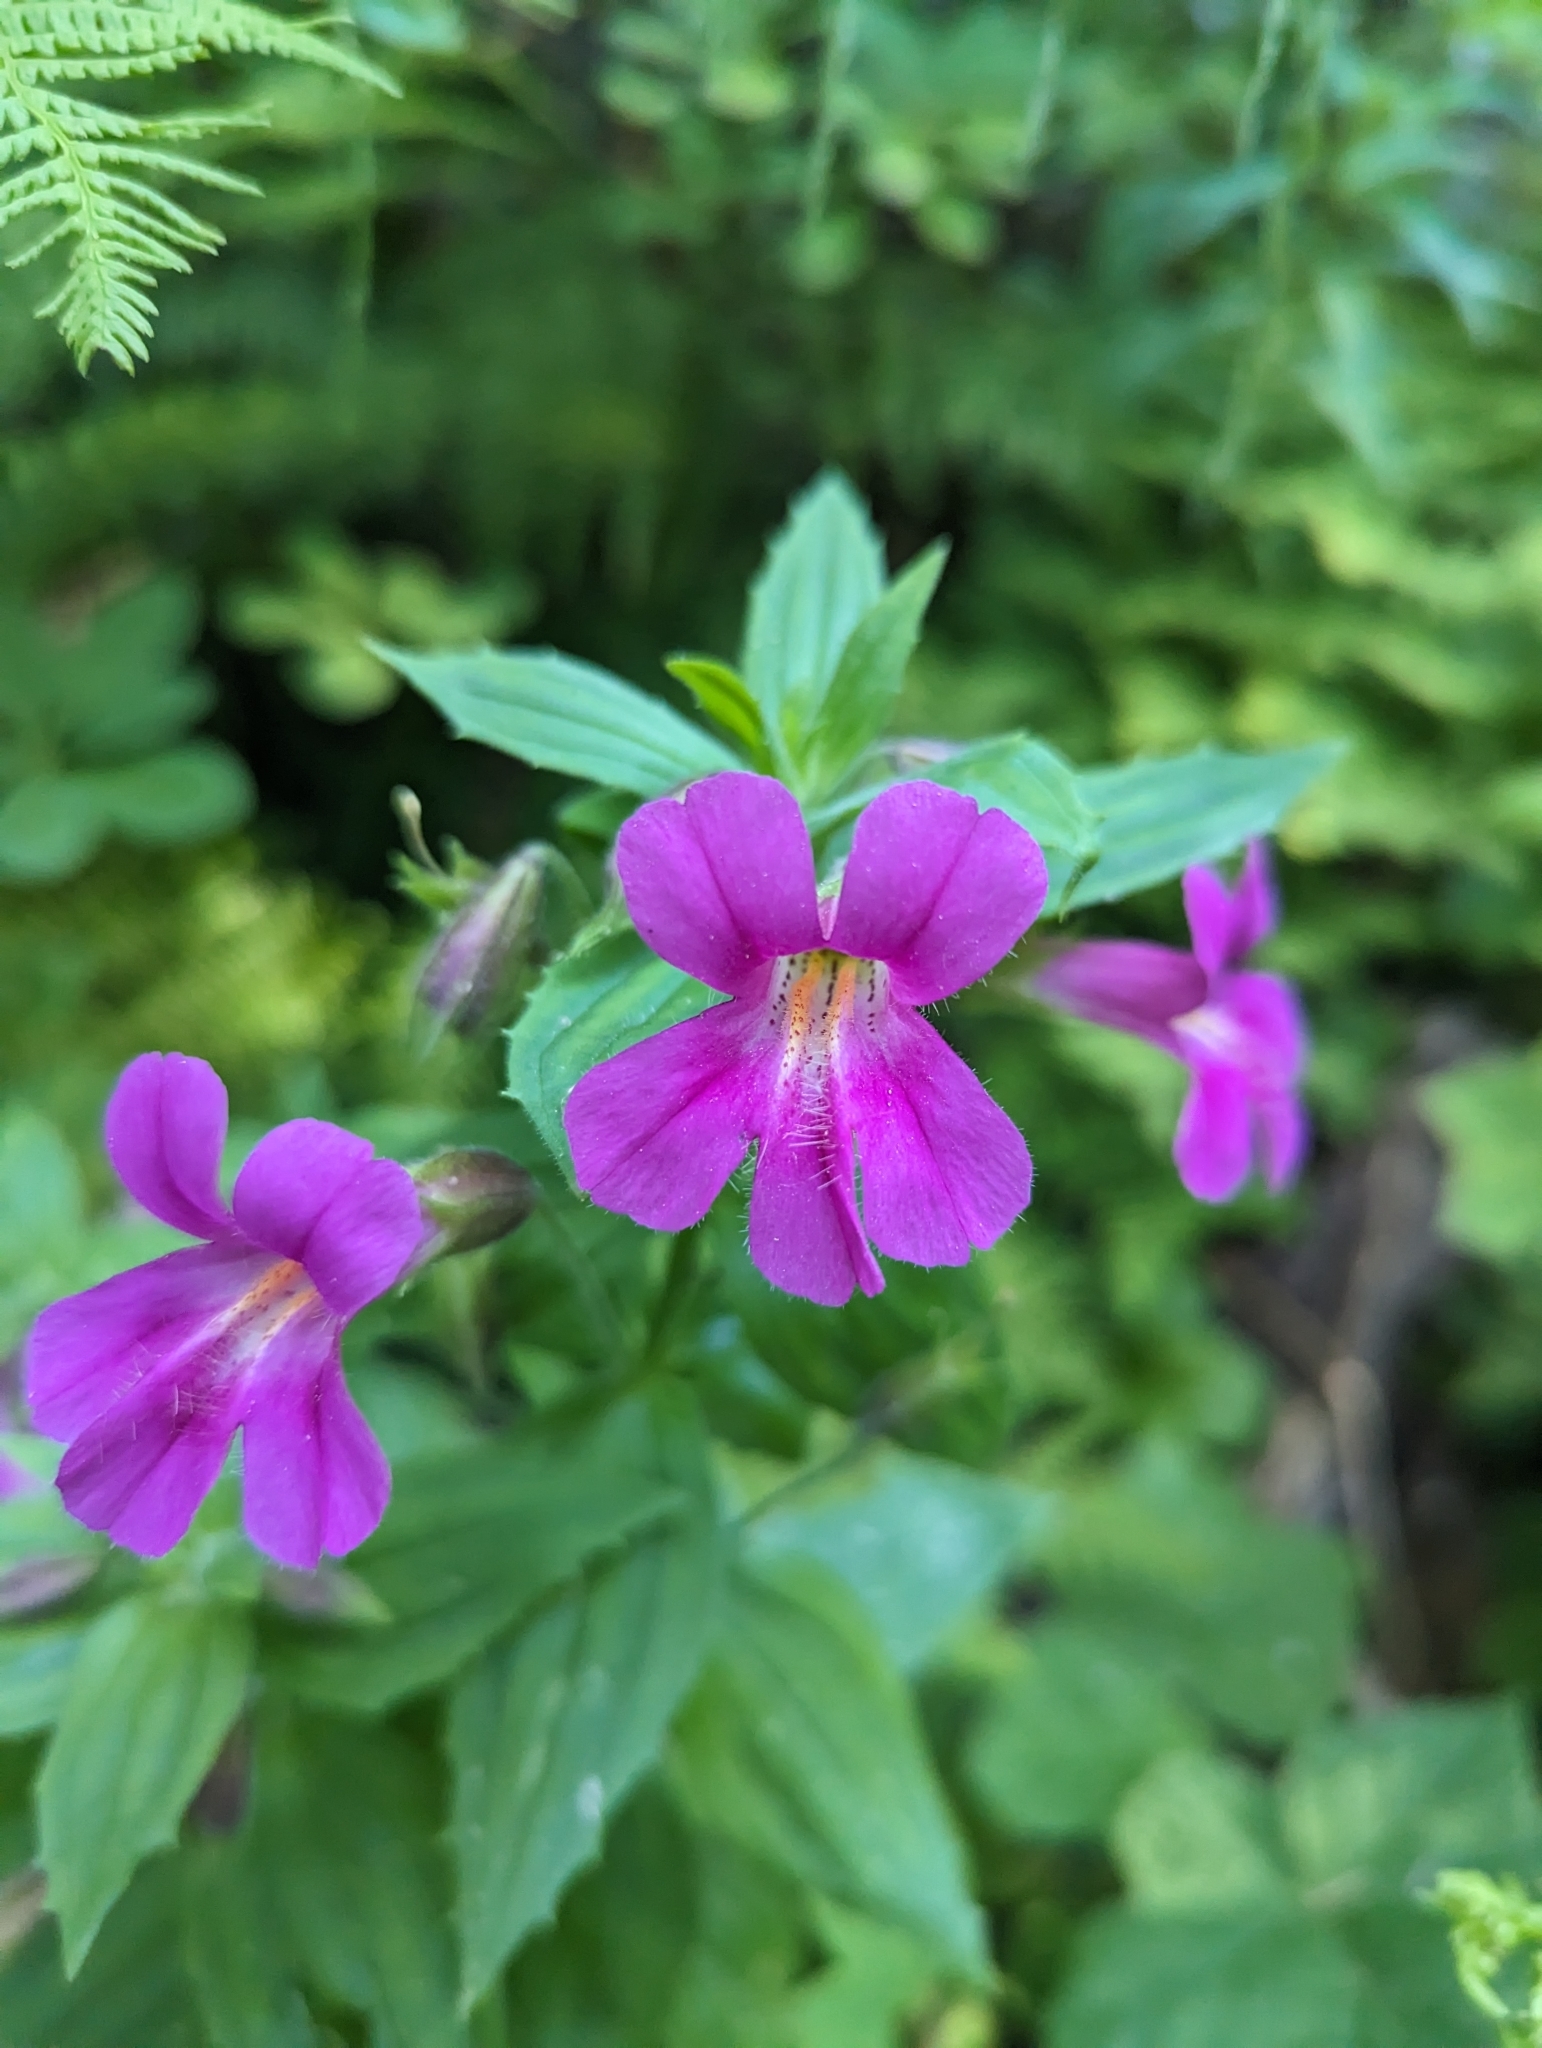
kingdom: Plantae
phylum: Tracheophyta
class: Magnoliopsida
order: Lamiales
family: Phrymaceae
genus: Erythranthe
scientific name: Erythranthe lewisii
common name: Lewis's monkey-flower
